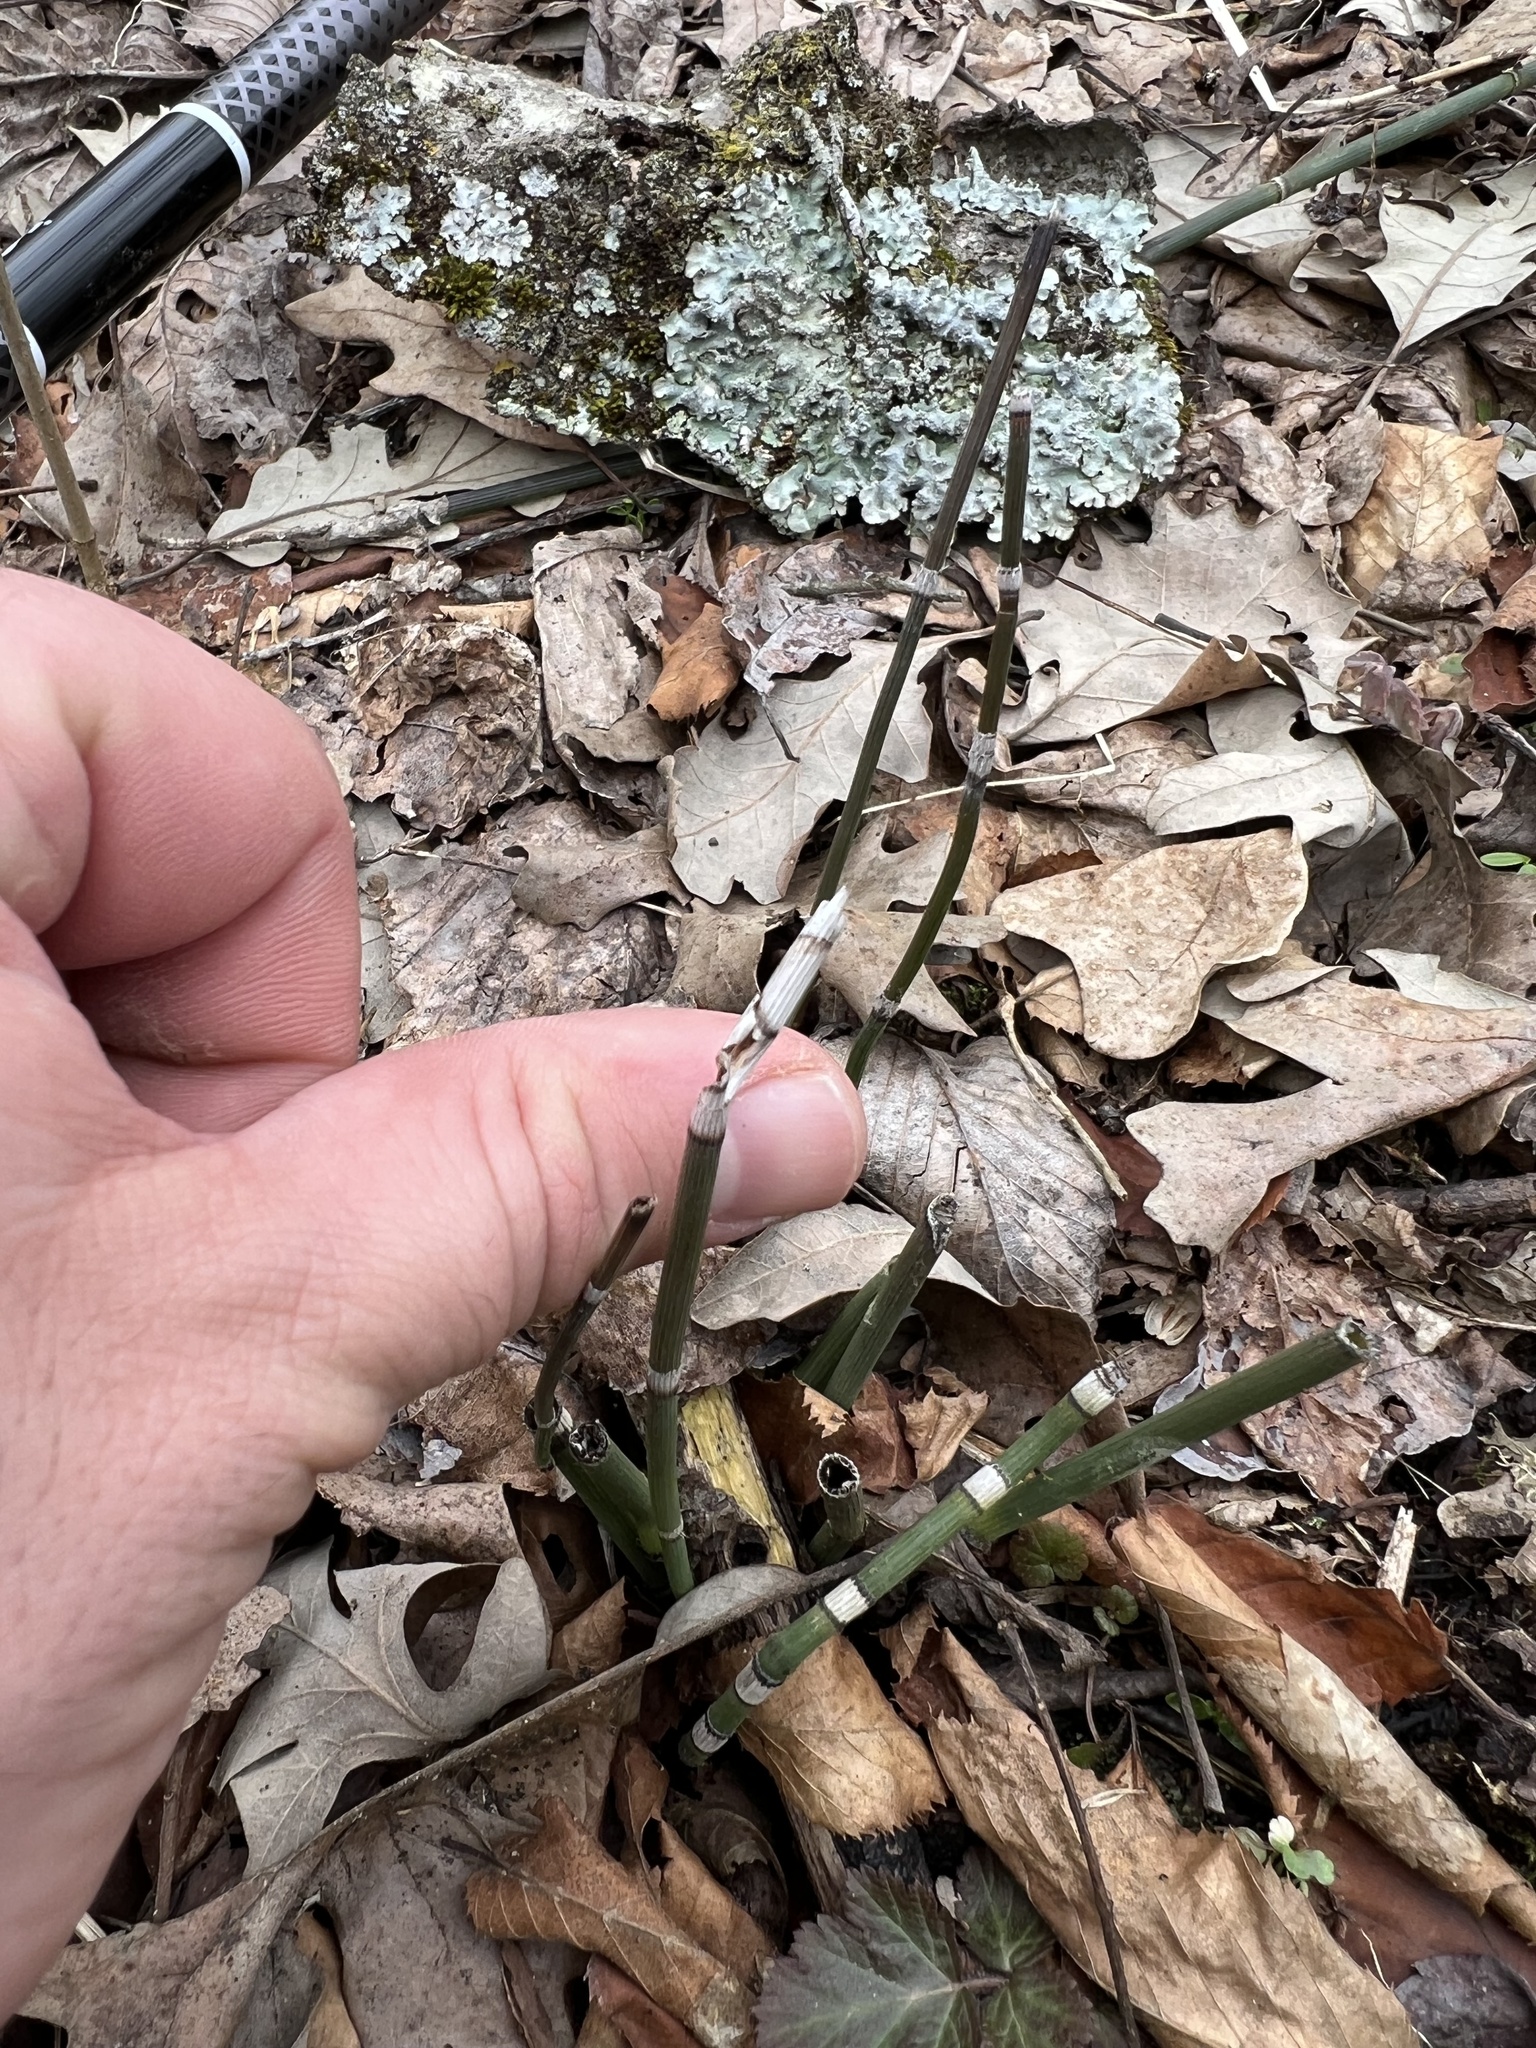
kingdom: Plantae
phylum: Tracheophyta
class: Polypodiopsida
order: Equisetales
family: Equisetaceae
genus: Equisetum
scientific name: Equisetum hyemale
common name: Rough horsetail
